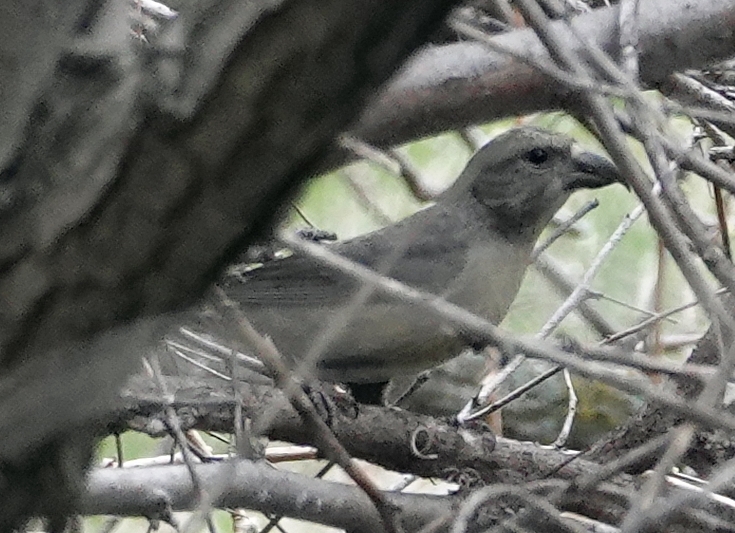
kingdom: Animalia
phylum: Chordata
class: Aves
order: Passeriformes
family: Fringillidae
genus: Loxia
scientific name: Loxia curvirostra
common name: Red crossbill
